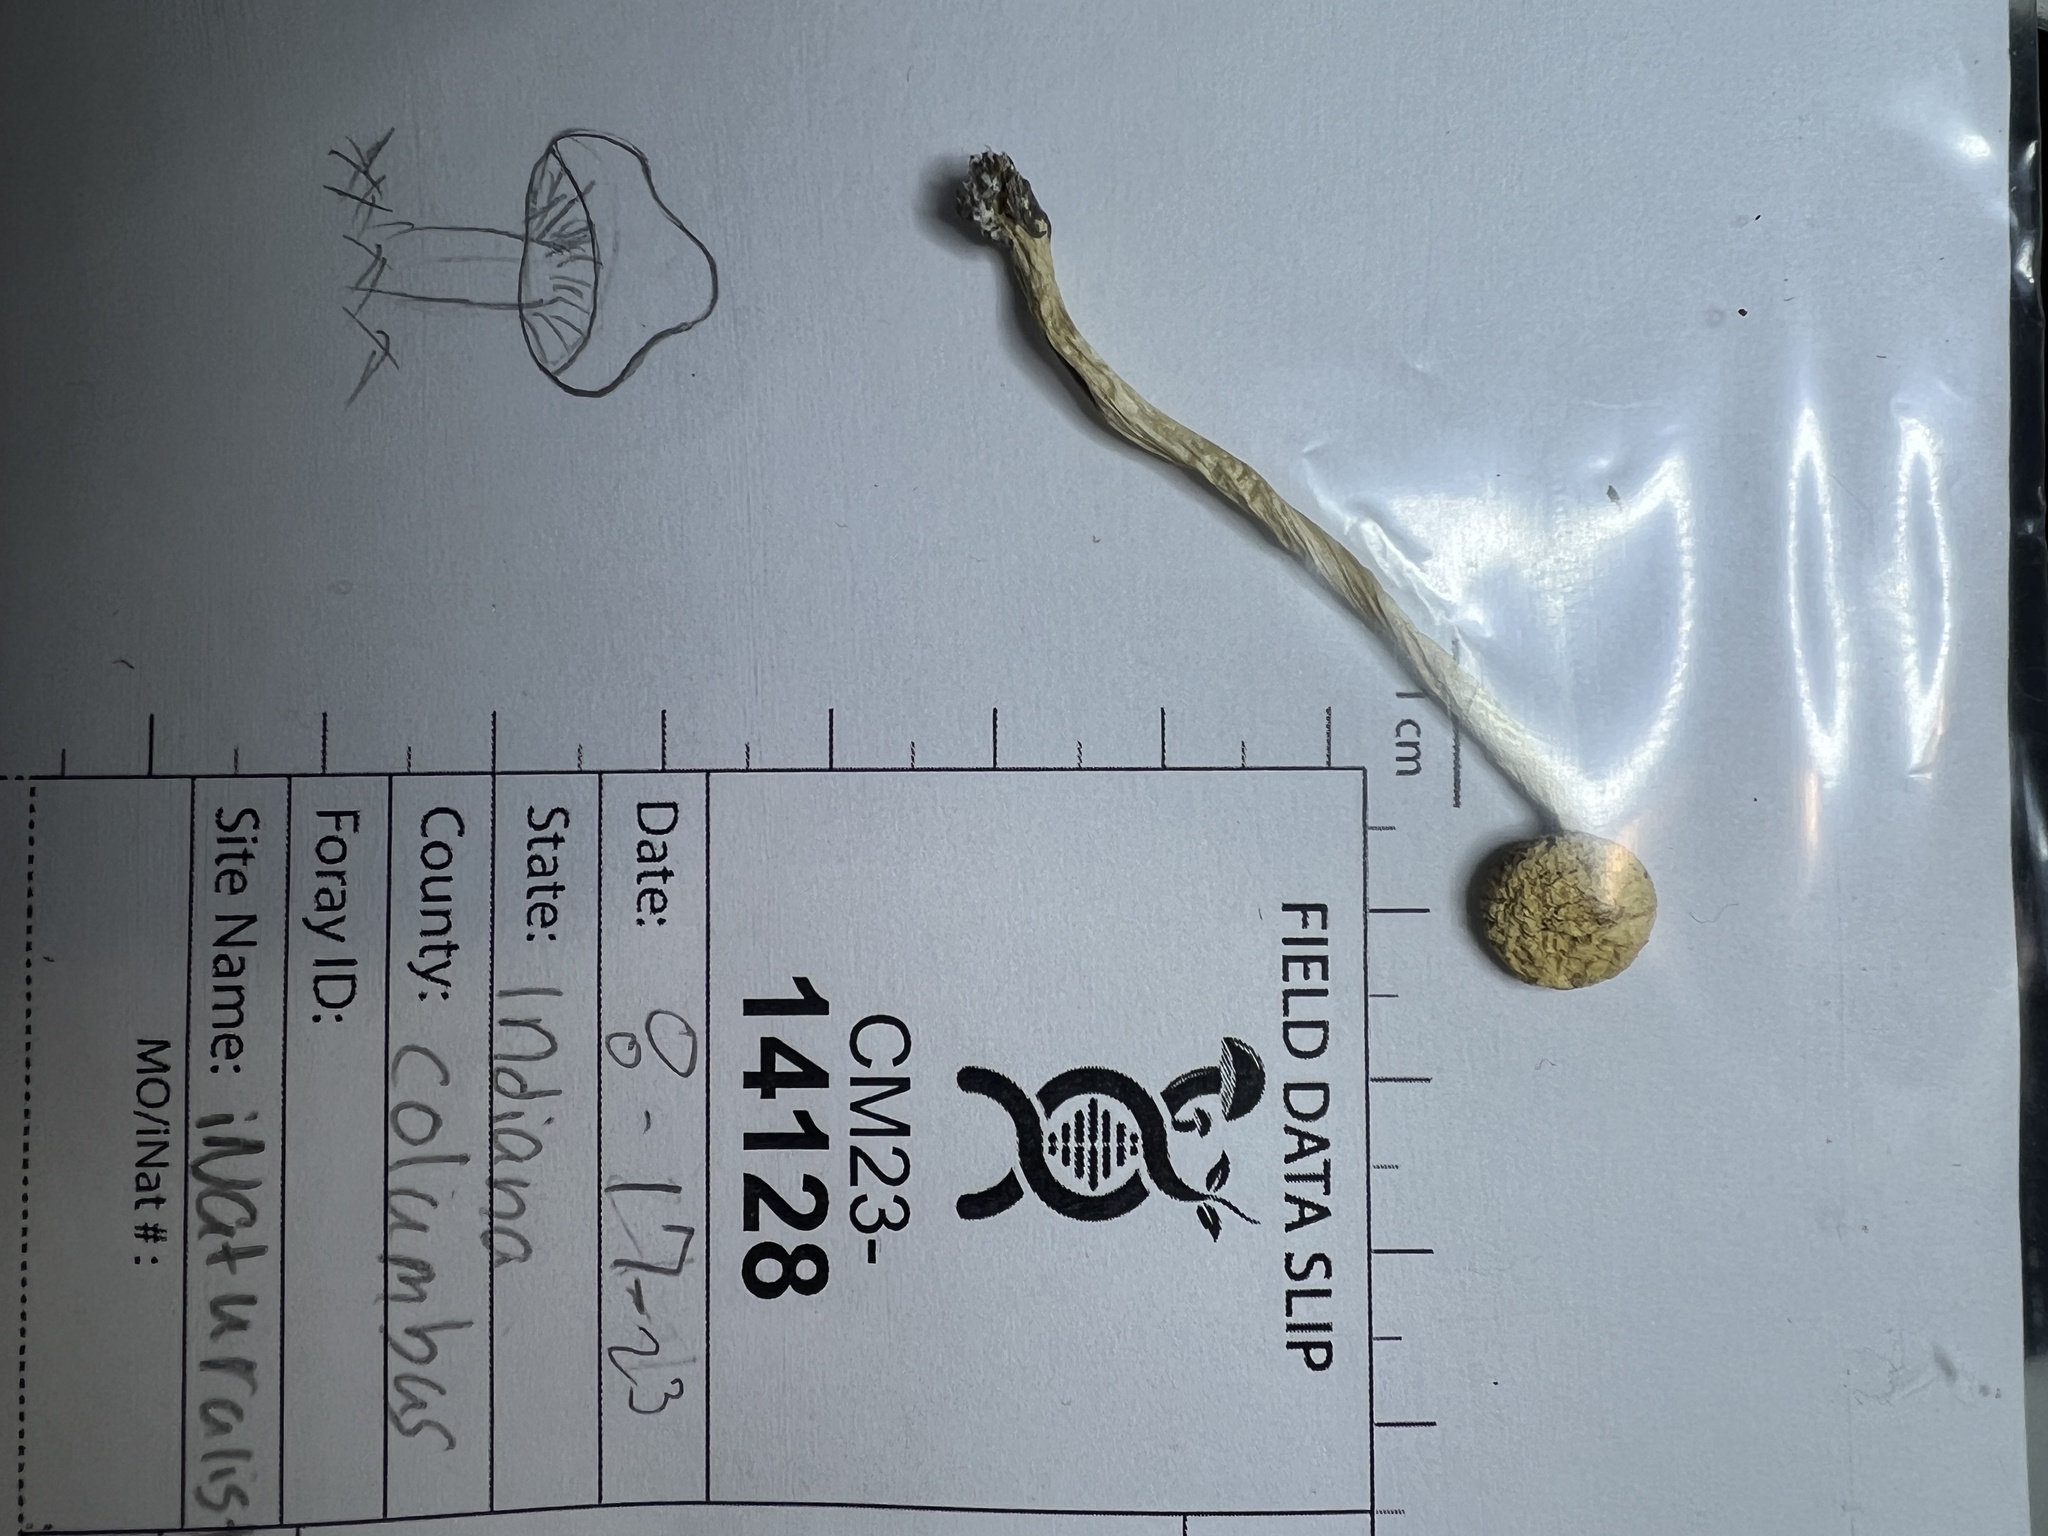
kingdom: Fungi
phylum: Basidiomycota
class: Agaricomycetes
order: Agaricales
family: Strophariaceae
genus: Agrocybe
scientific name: Agrocybe molesta
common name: Bearded fieldcap
